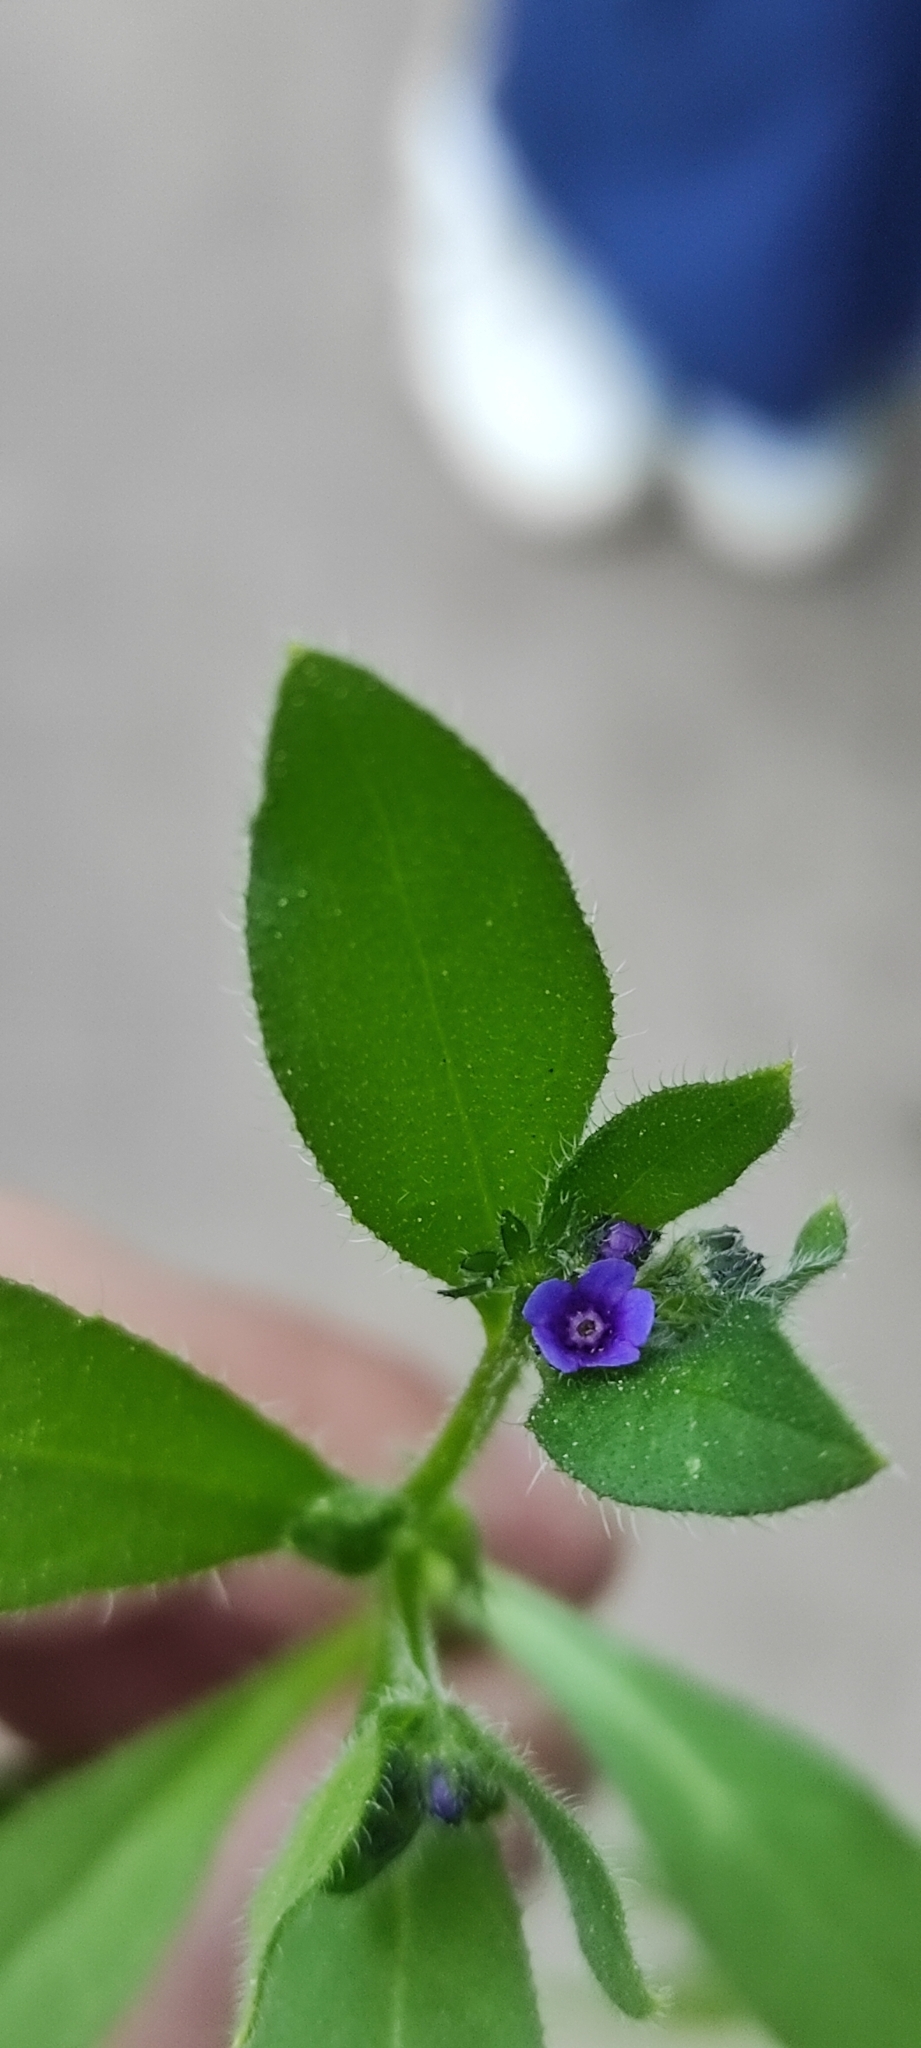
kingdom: Plantae
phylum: Tracheophyta
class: Magnoliopsida
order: Boraginales
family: Boraginaceae
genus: Asperugo
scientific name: Asperugo procumbens
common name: Madwort
